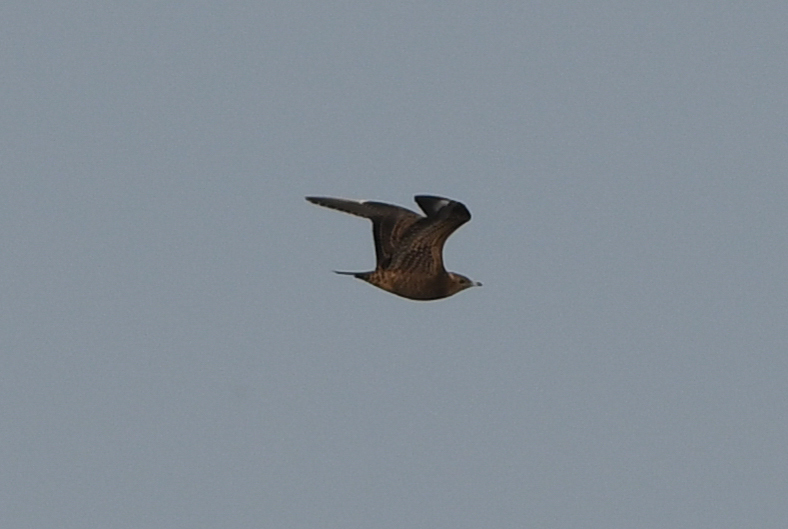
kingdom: Animalia
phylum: Chordata
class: Aves
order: Charadriiformes
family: Stercorariidae
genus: Stercorarius
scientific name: Stercorarius parasiticus
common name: Parasitic jaeger
